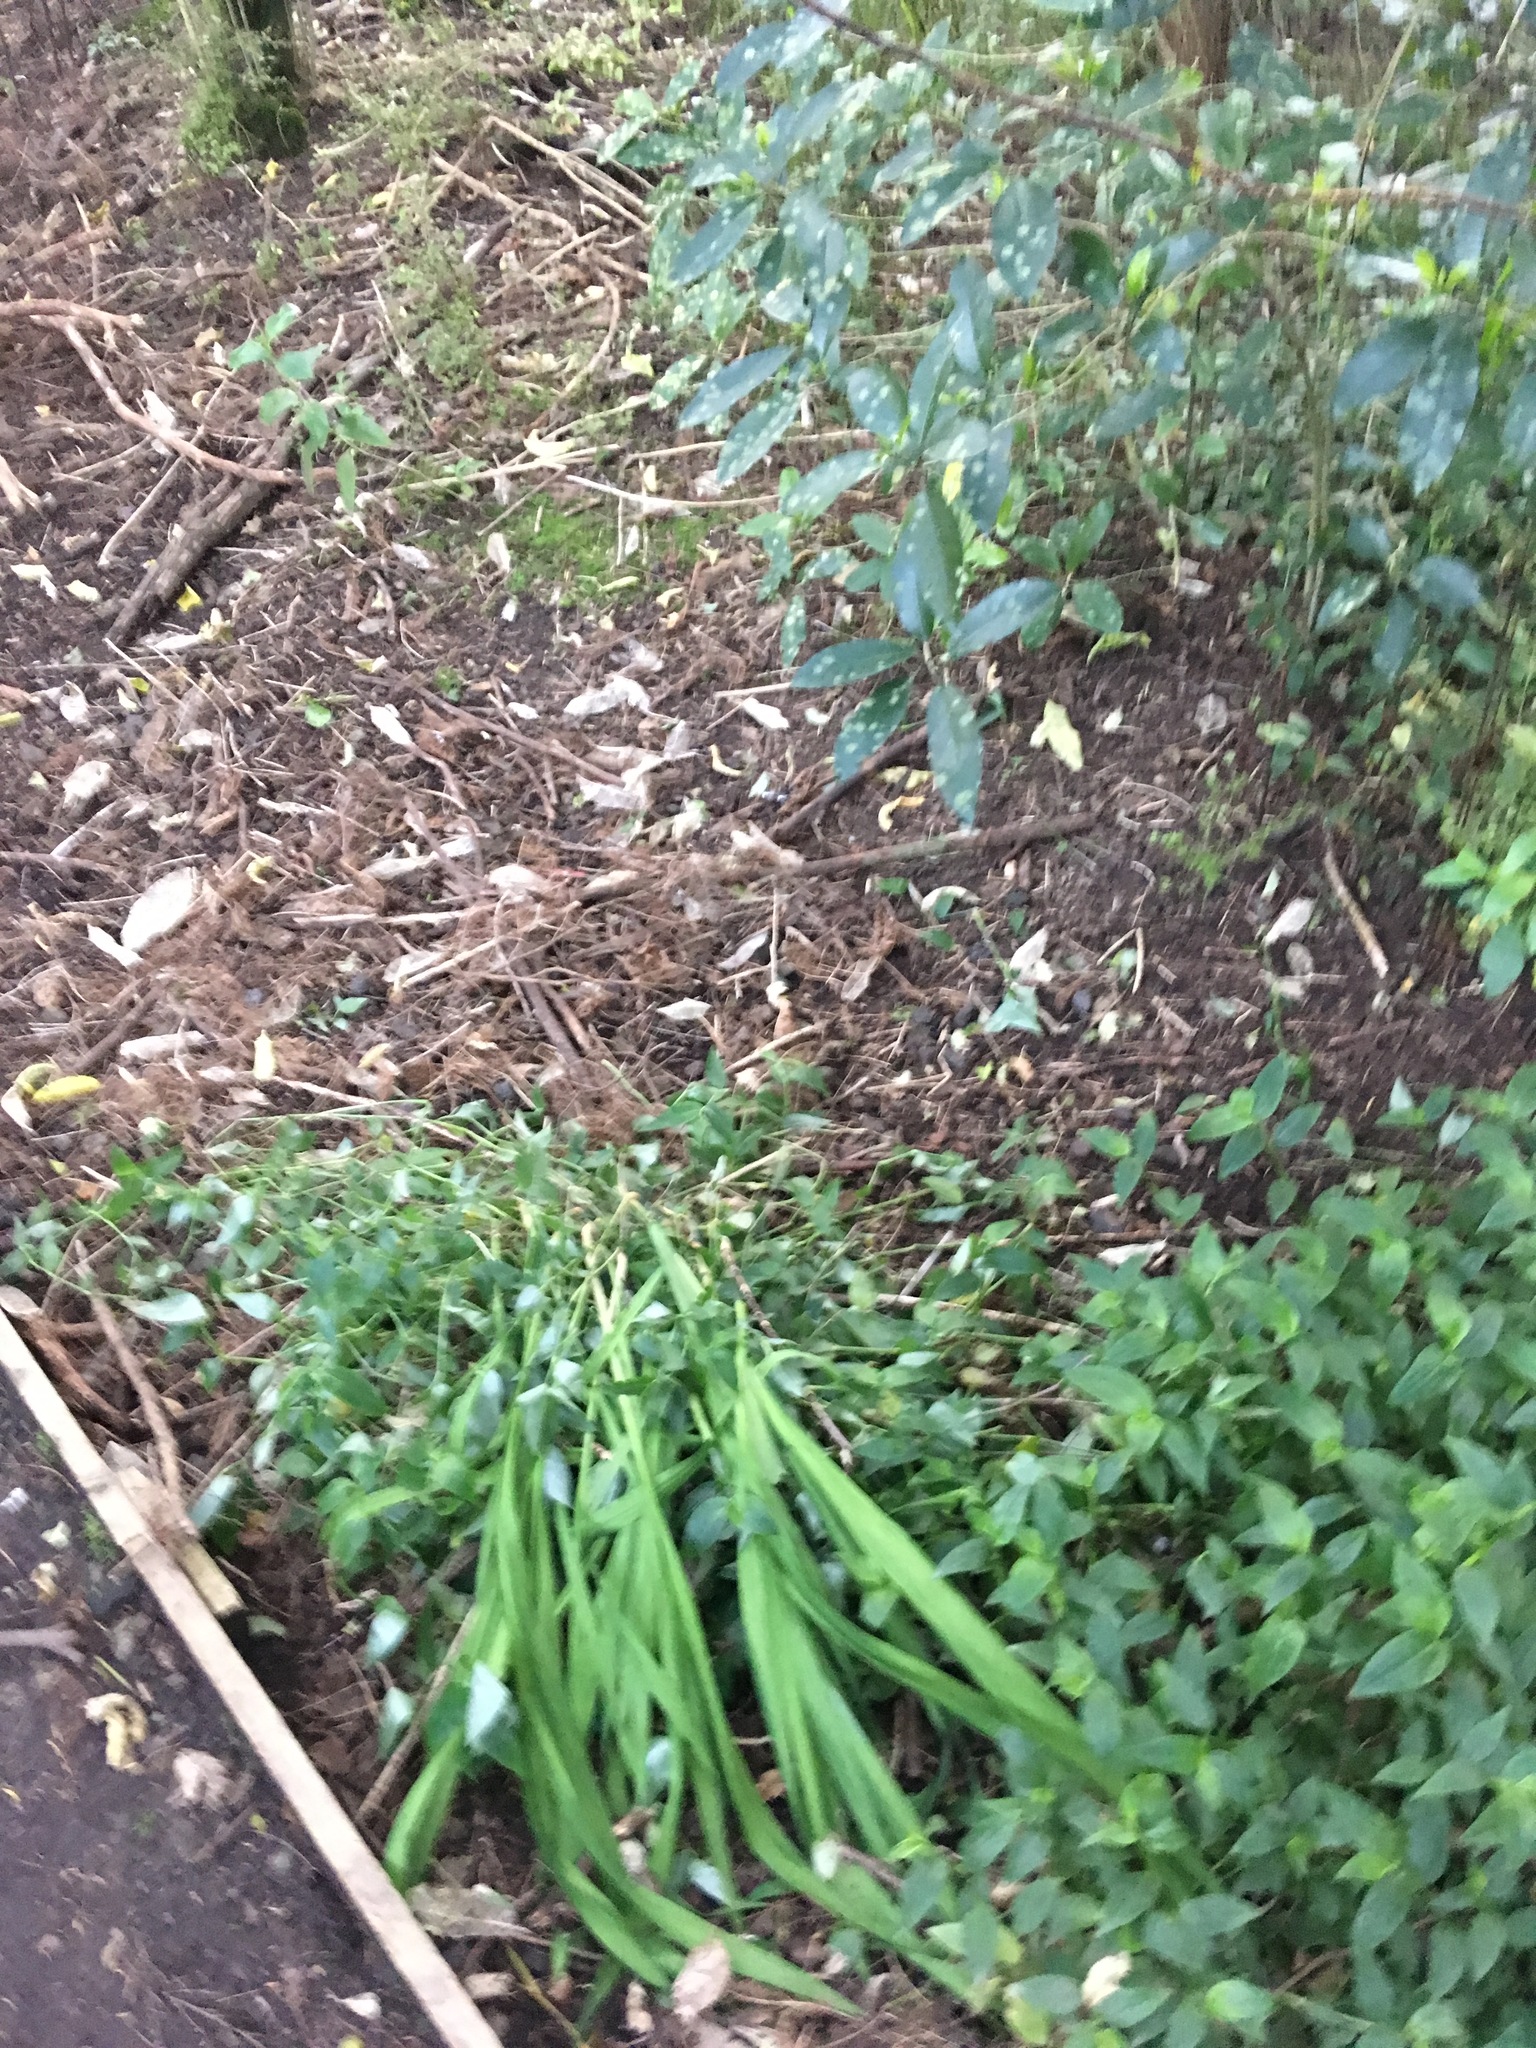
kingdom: Plantae
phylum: Tracheophyta
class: Liliopsida
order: Commelinales
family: Commelinaceae
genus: Tradescantia
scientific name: Tradescantia fluminensis
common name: Wandering-jew
